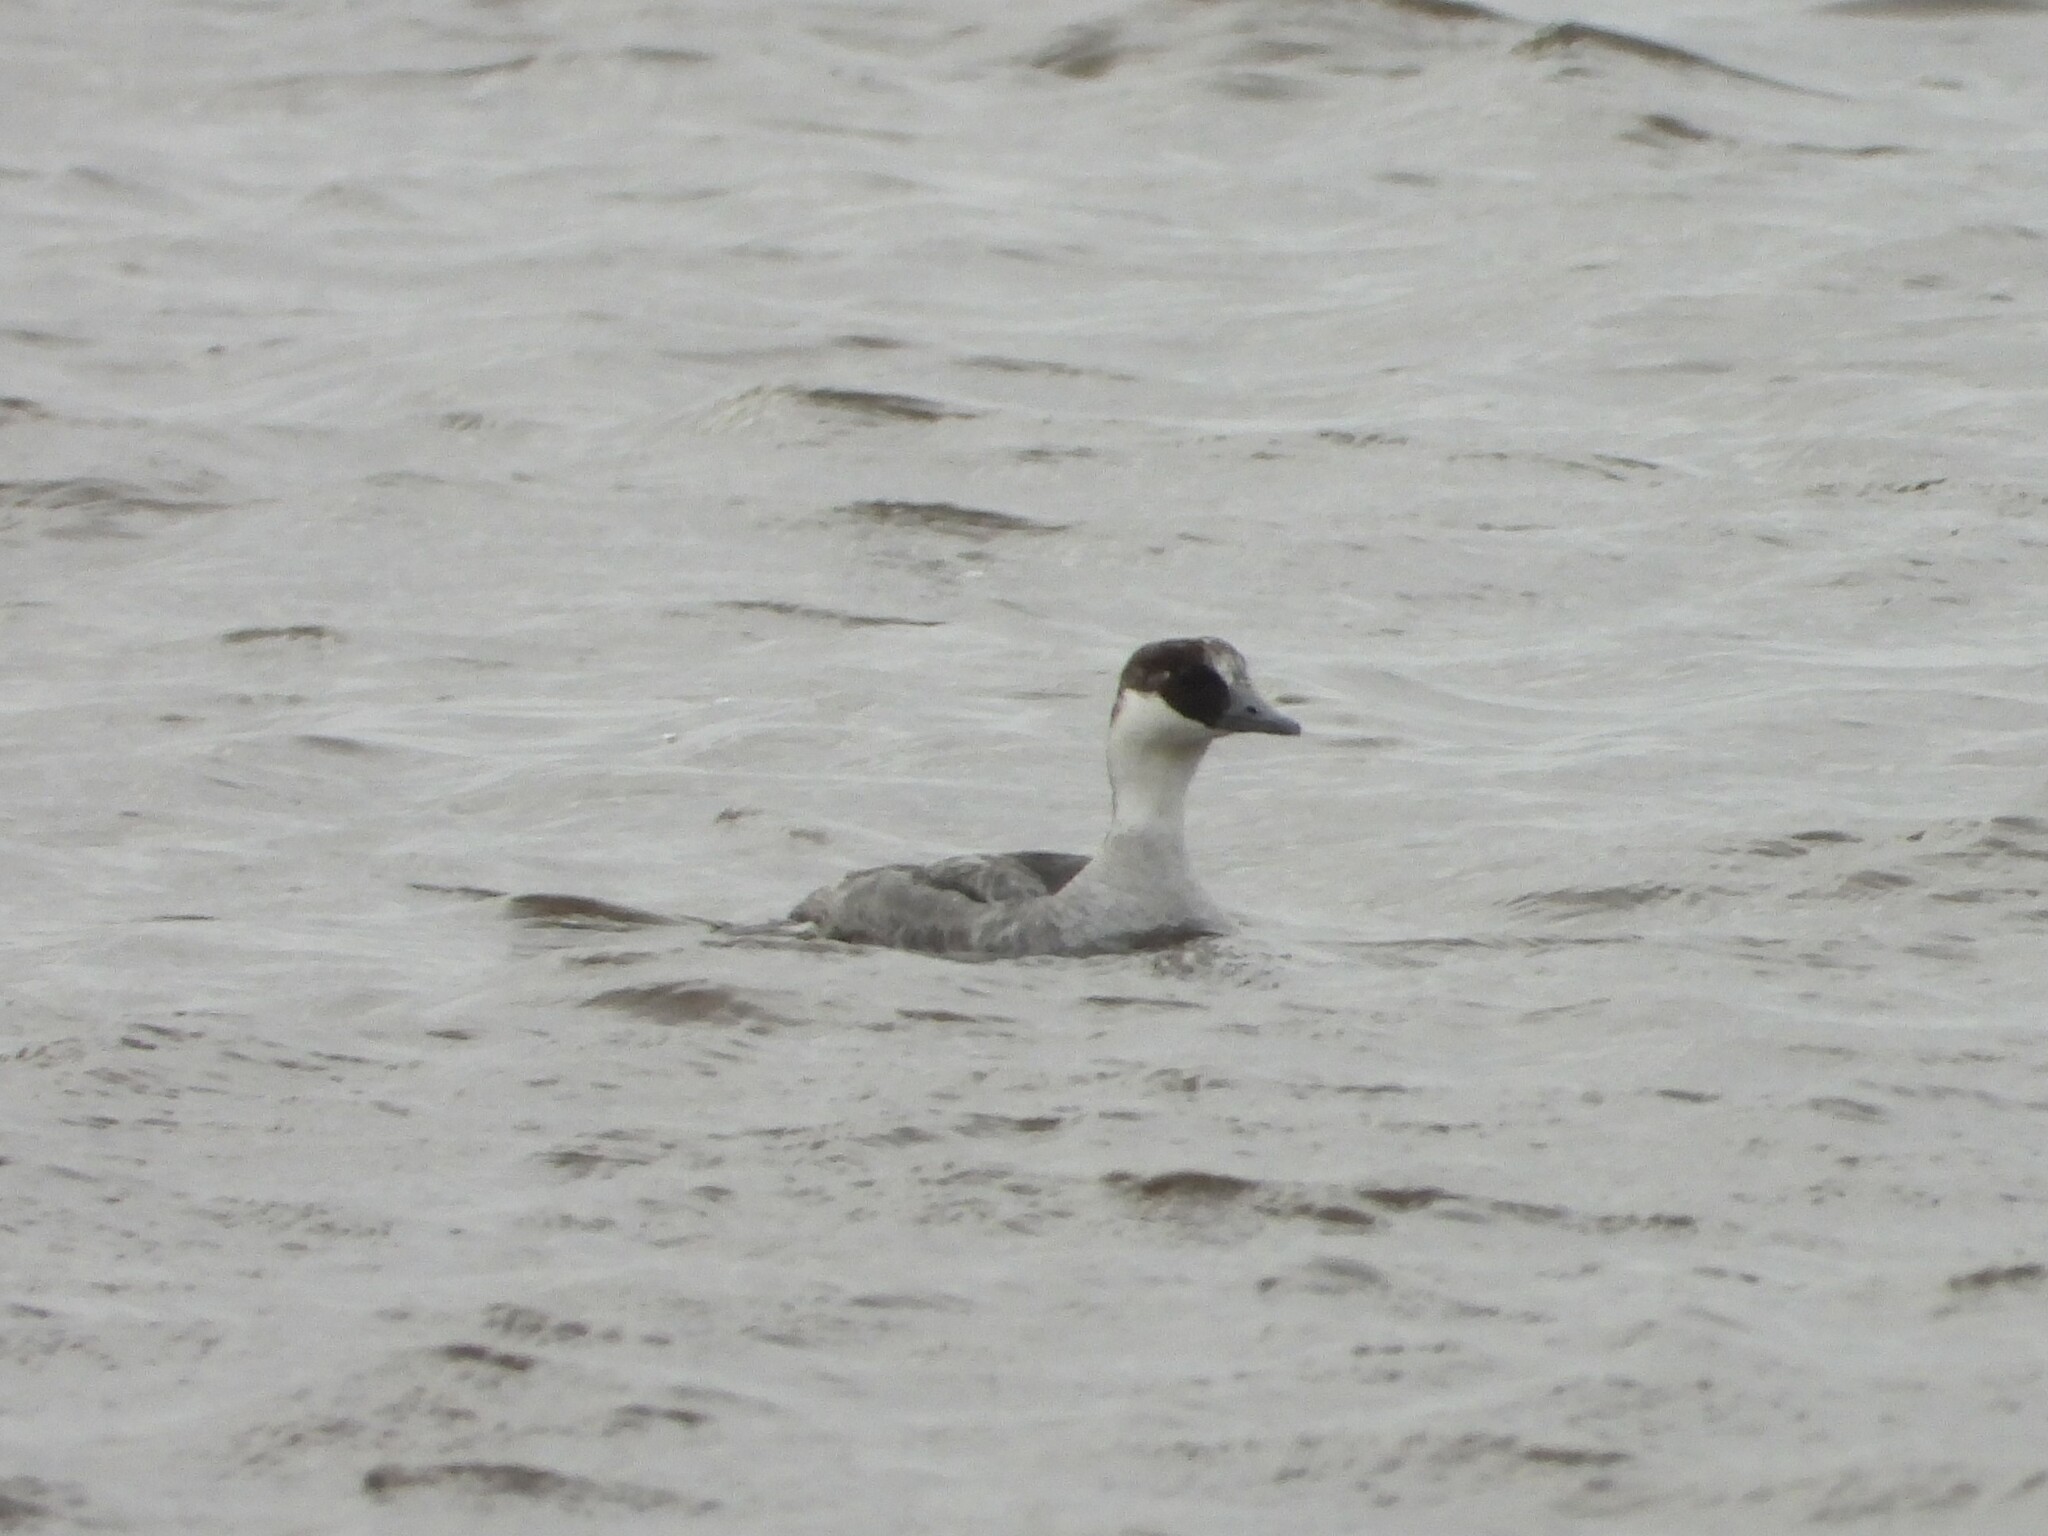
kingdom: Animalia
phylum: Chordata
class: Aves
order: Anseriformes
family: Anatidae
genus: Mergellus
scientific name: Mergellus albellus
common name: Smew
